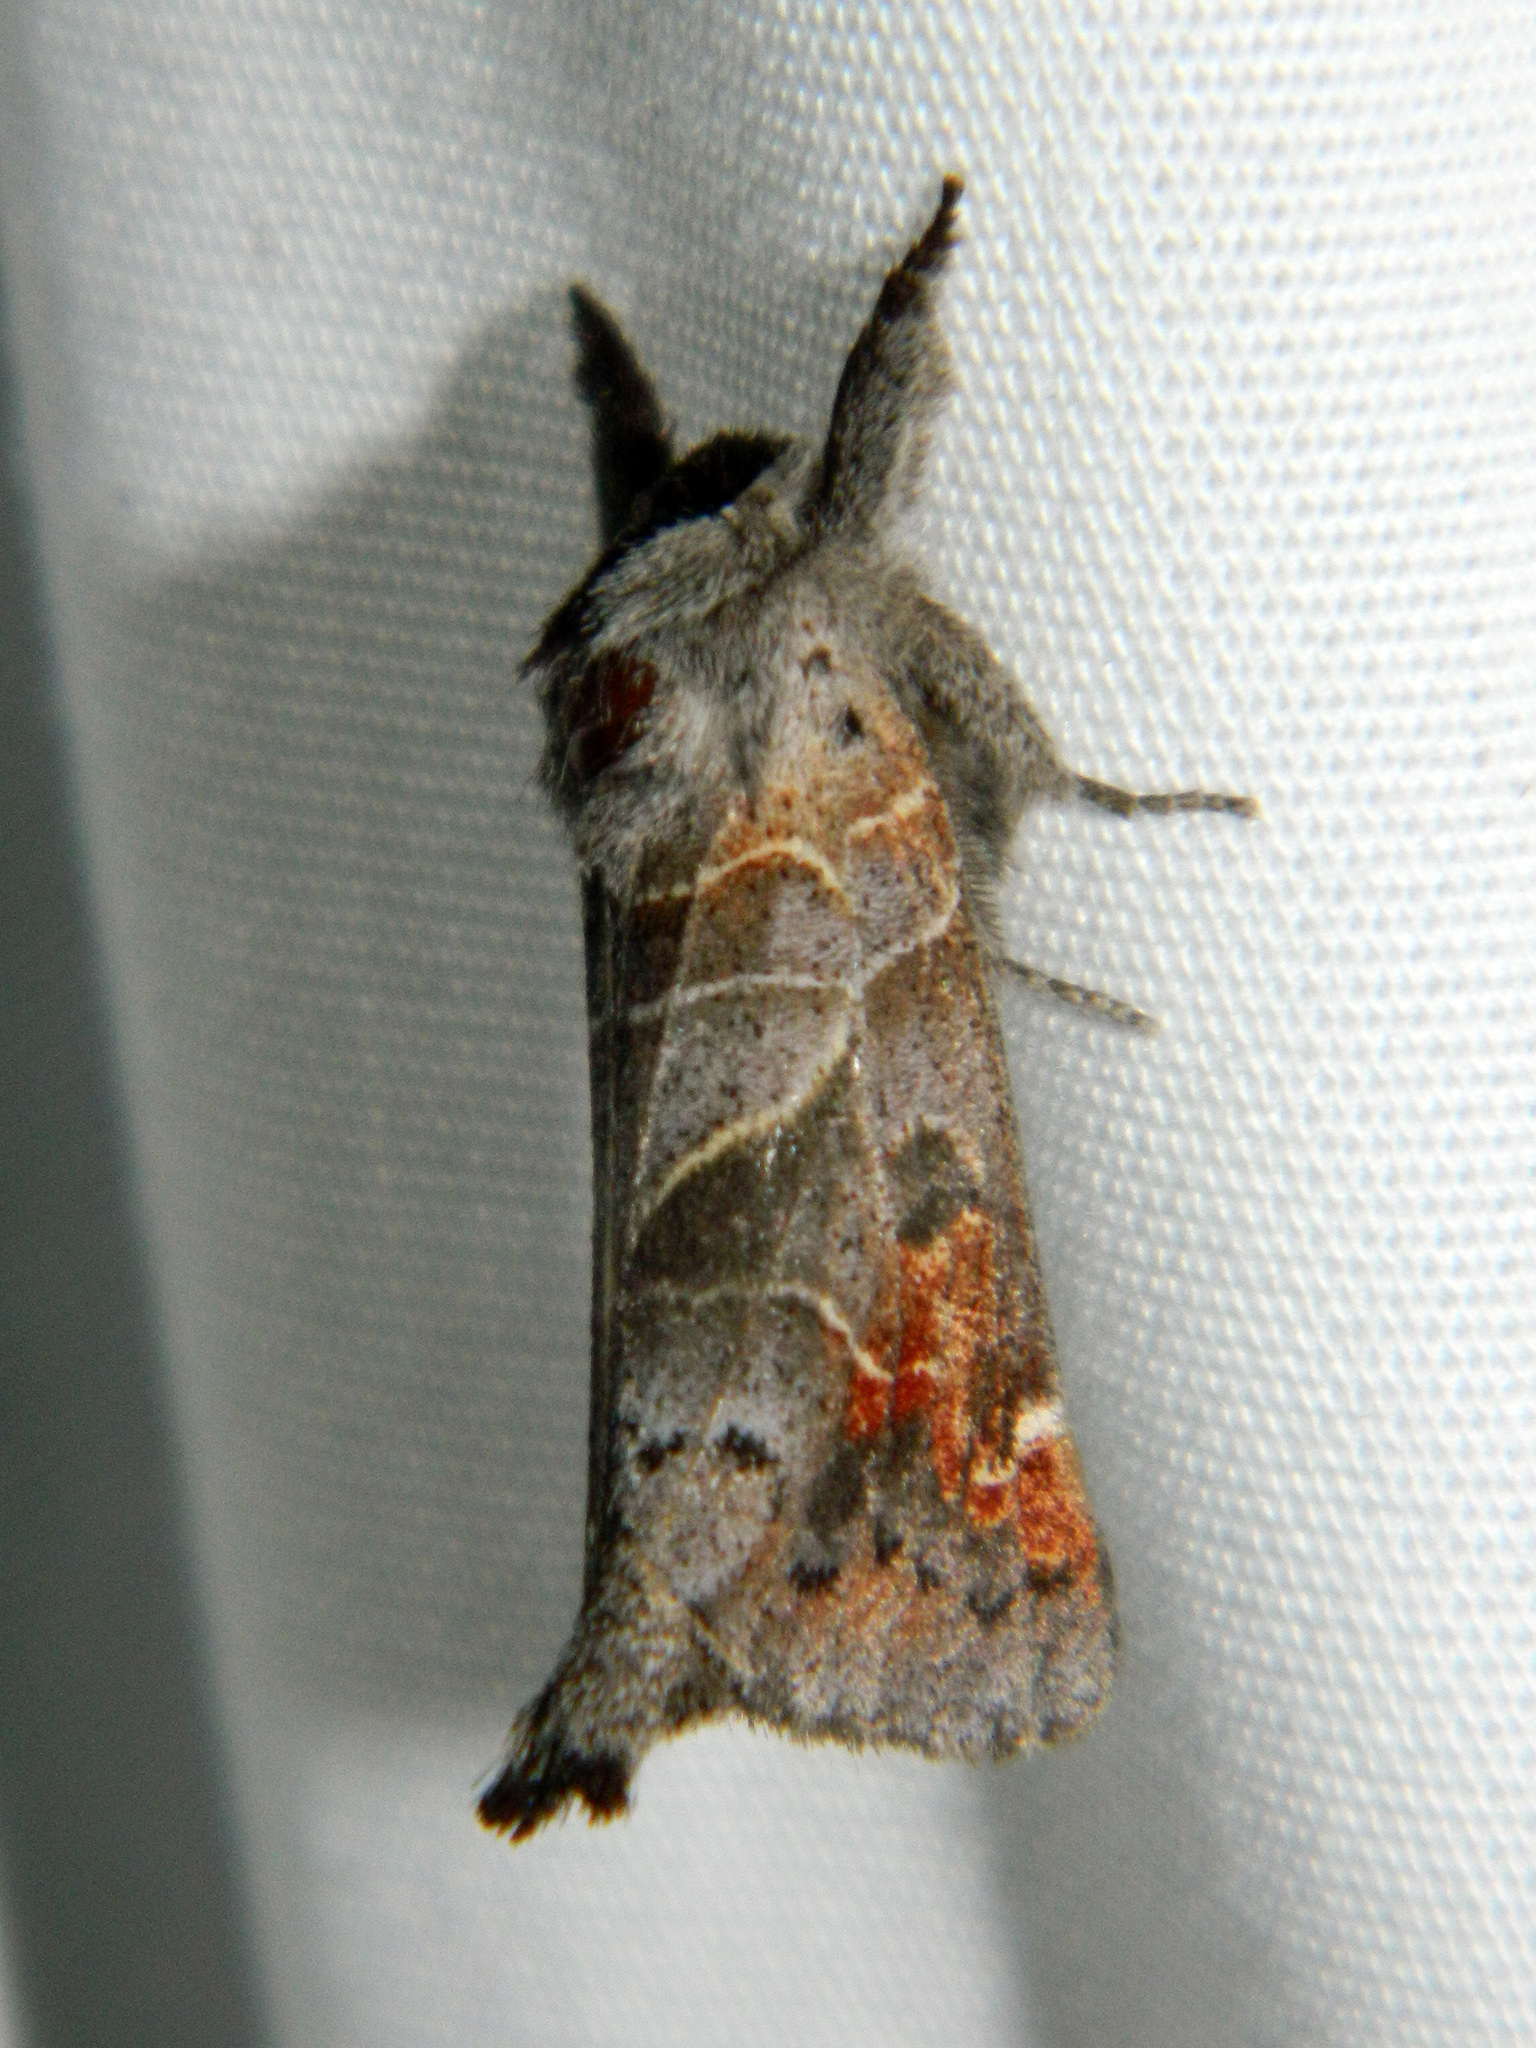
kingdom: Animalia
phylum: Arthropoda
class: Insecta
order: Lepidoptera
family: Notodontidae
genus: Clostera
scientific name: Clostera apicalis
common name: Apical prominent
